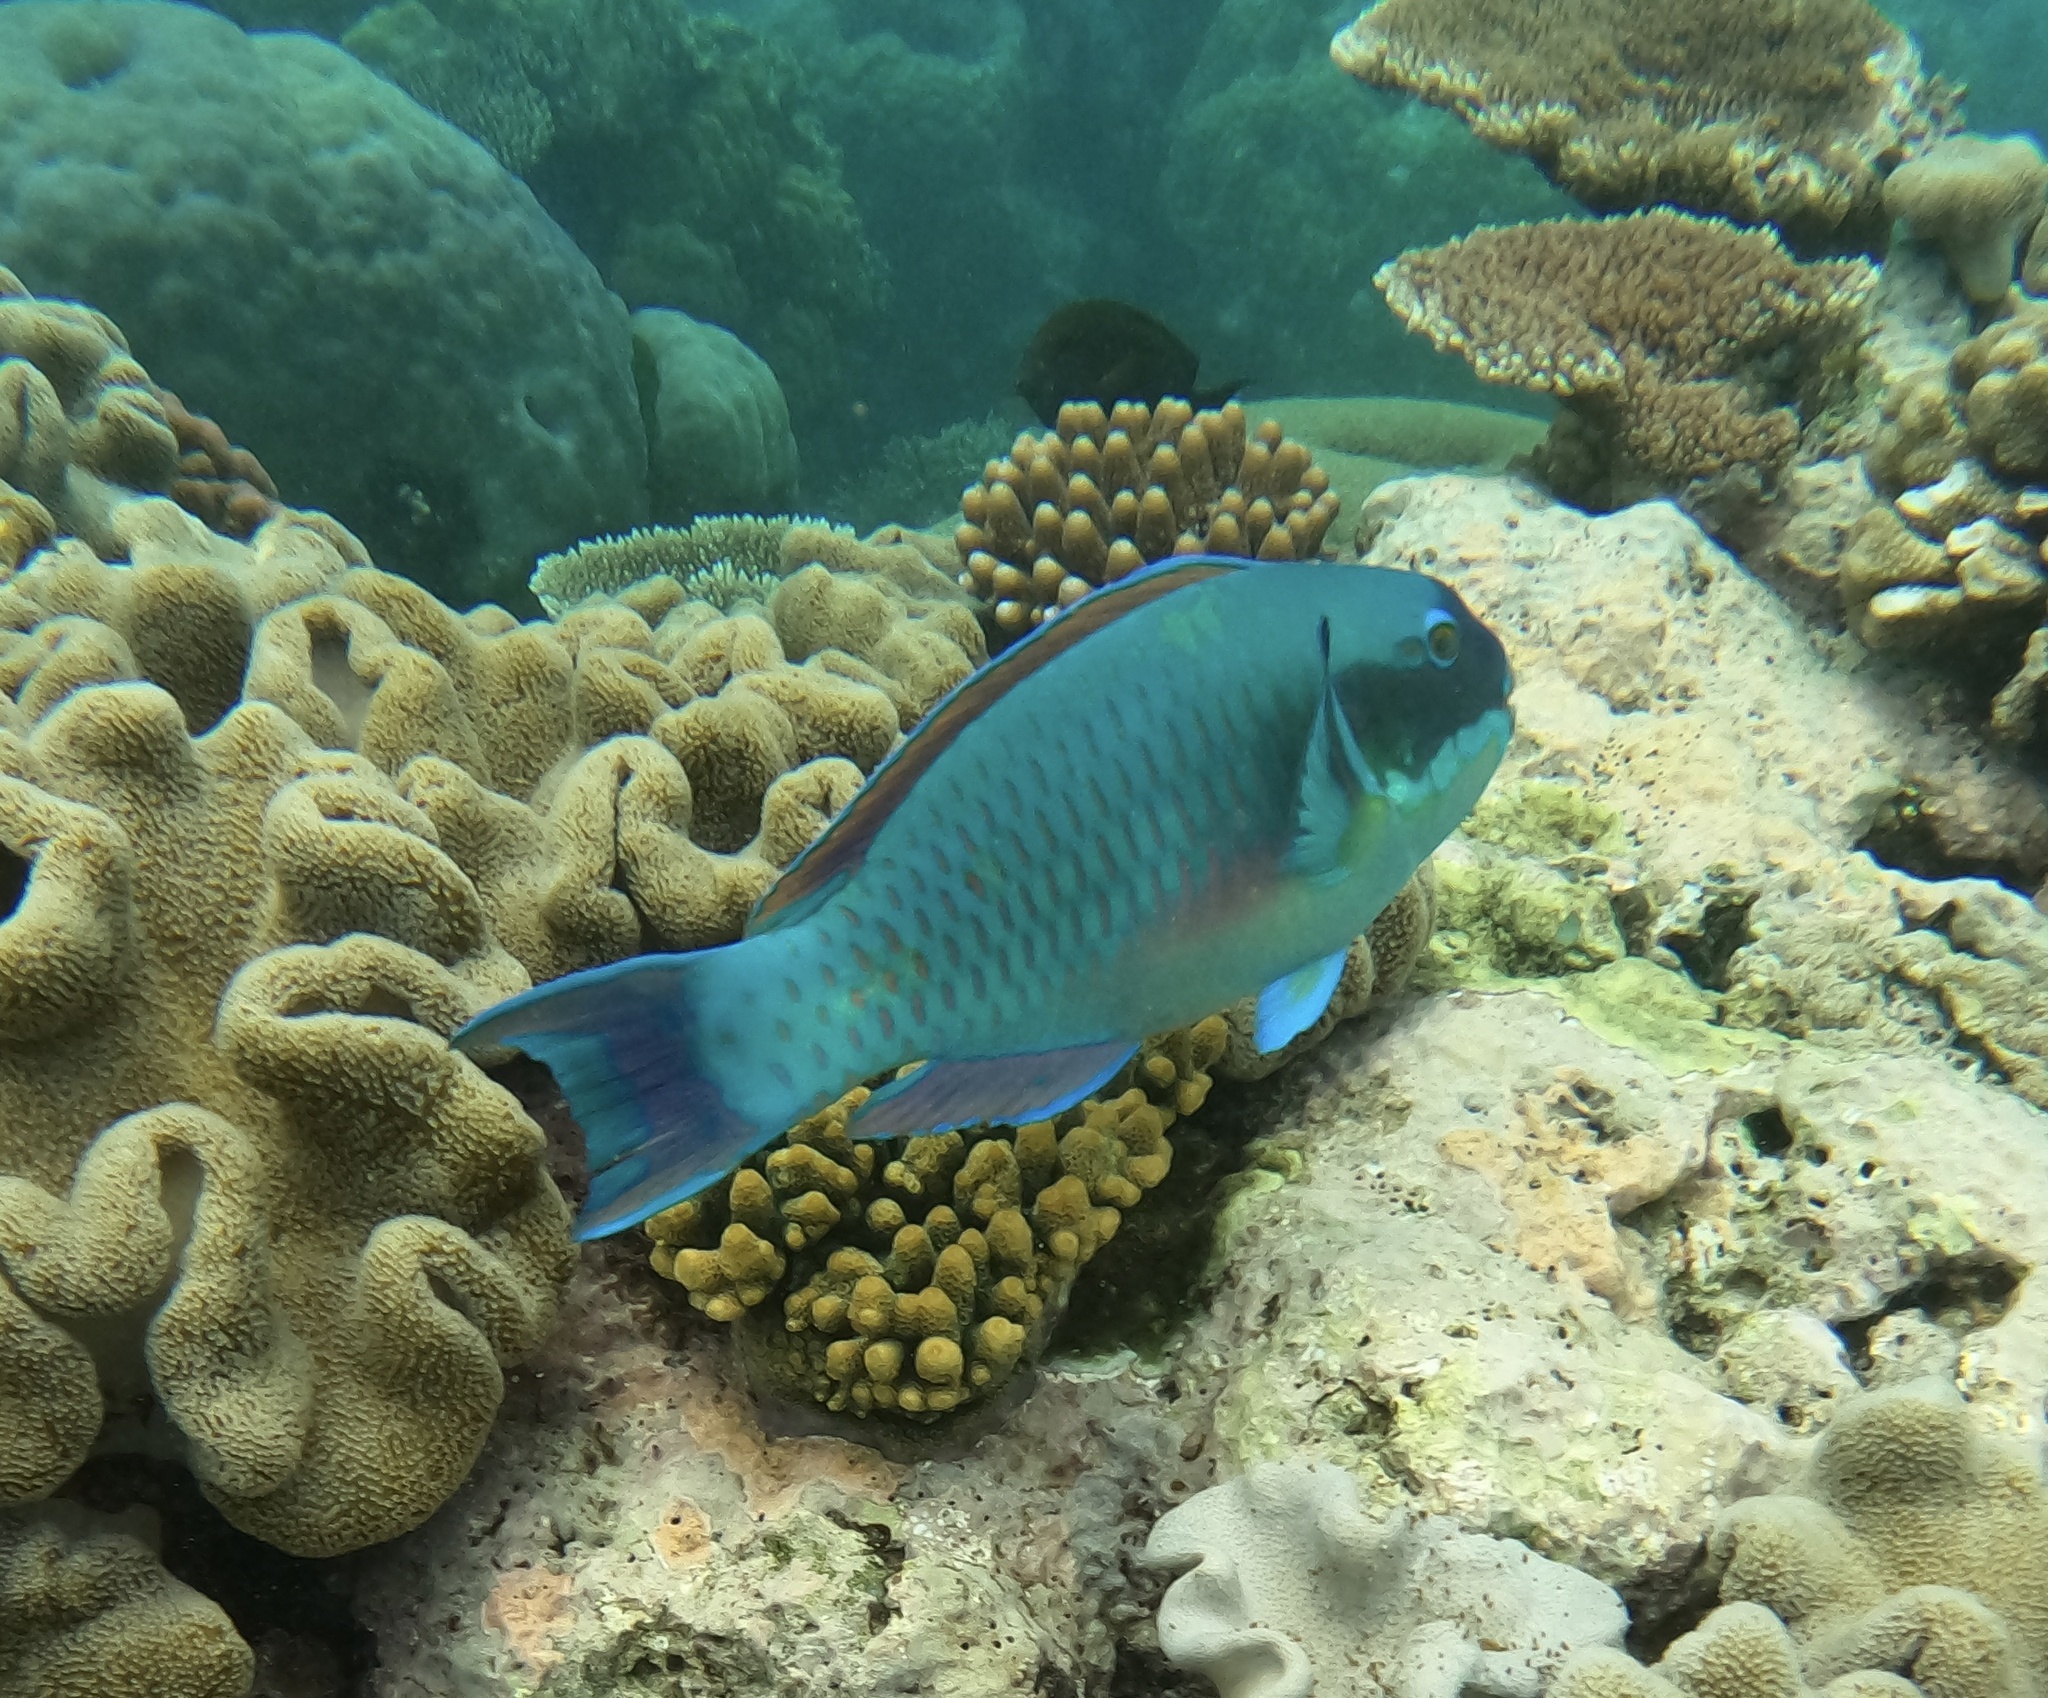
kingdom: Animalia
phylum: Chordata
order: Perciformes
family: Scaridae
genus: Chlorurus
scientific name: Chlorurus microrhinos
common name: Steephead parrotfish
